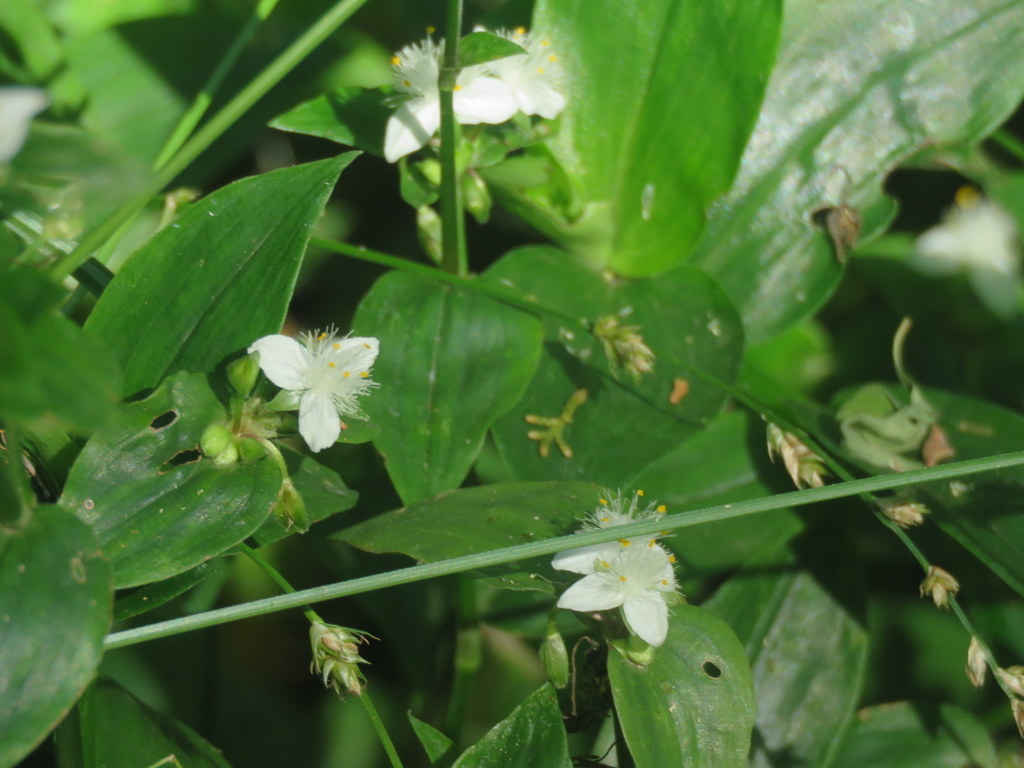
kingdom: Plantae
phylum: Tracheophyta
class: Liliopsida
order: Commelinales
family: Commelinaceae
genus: Tradescantia
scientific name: Tradescantia fluminensis
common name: Wandering-jew
